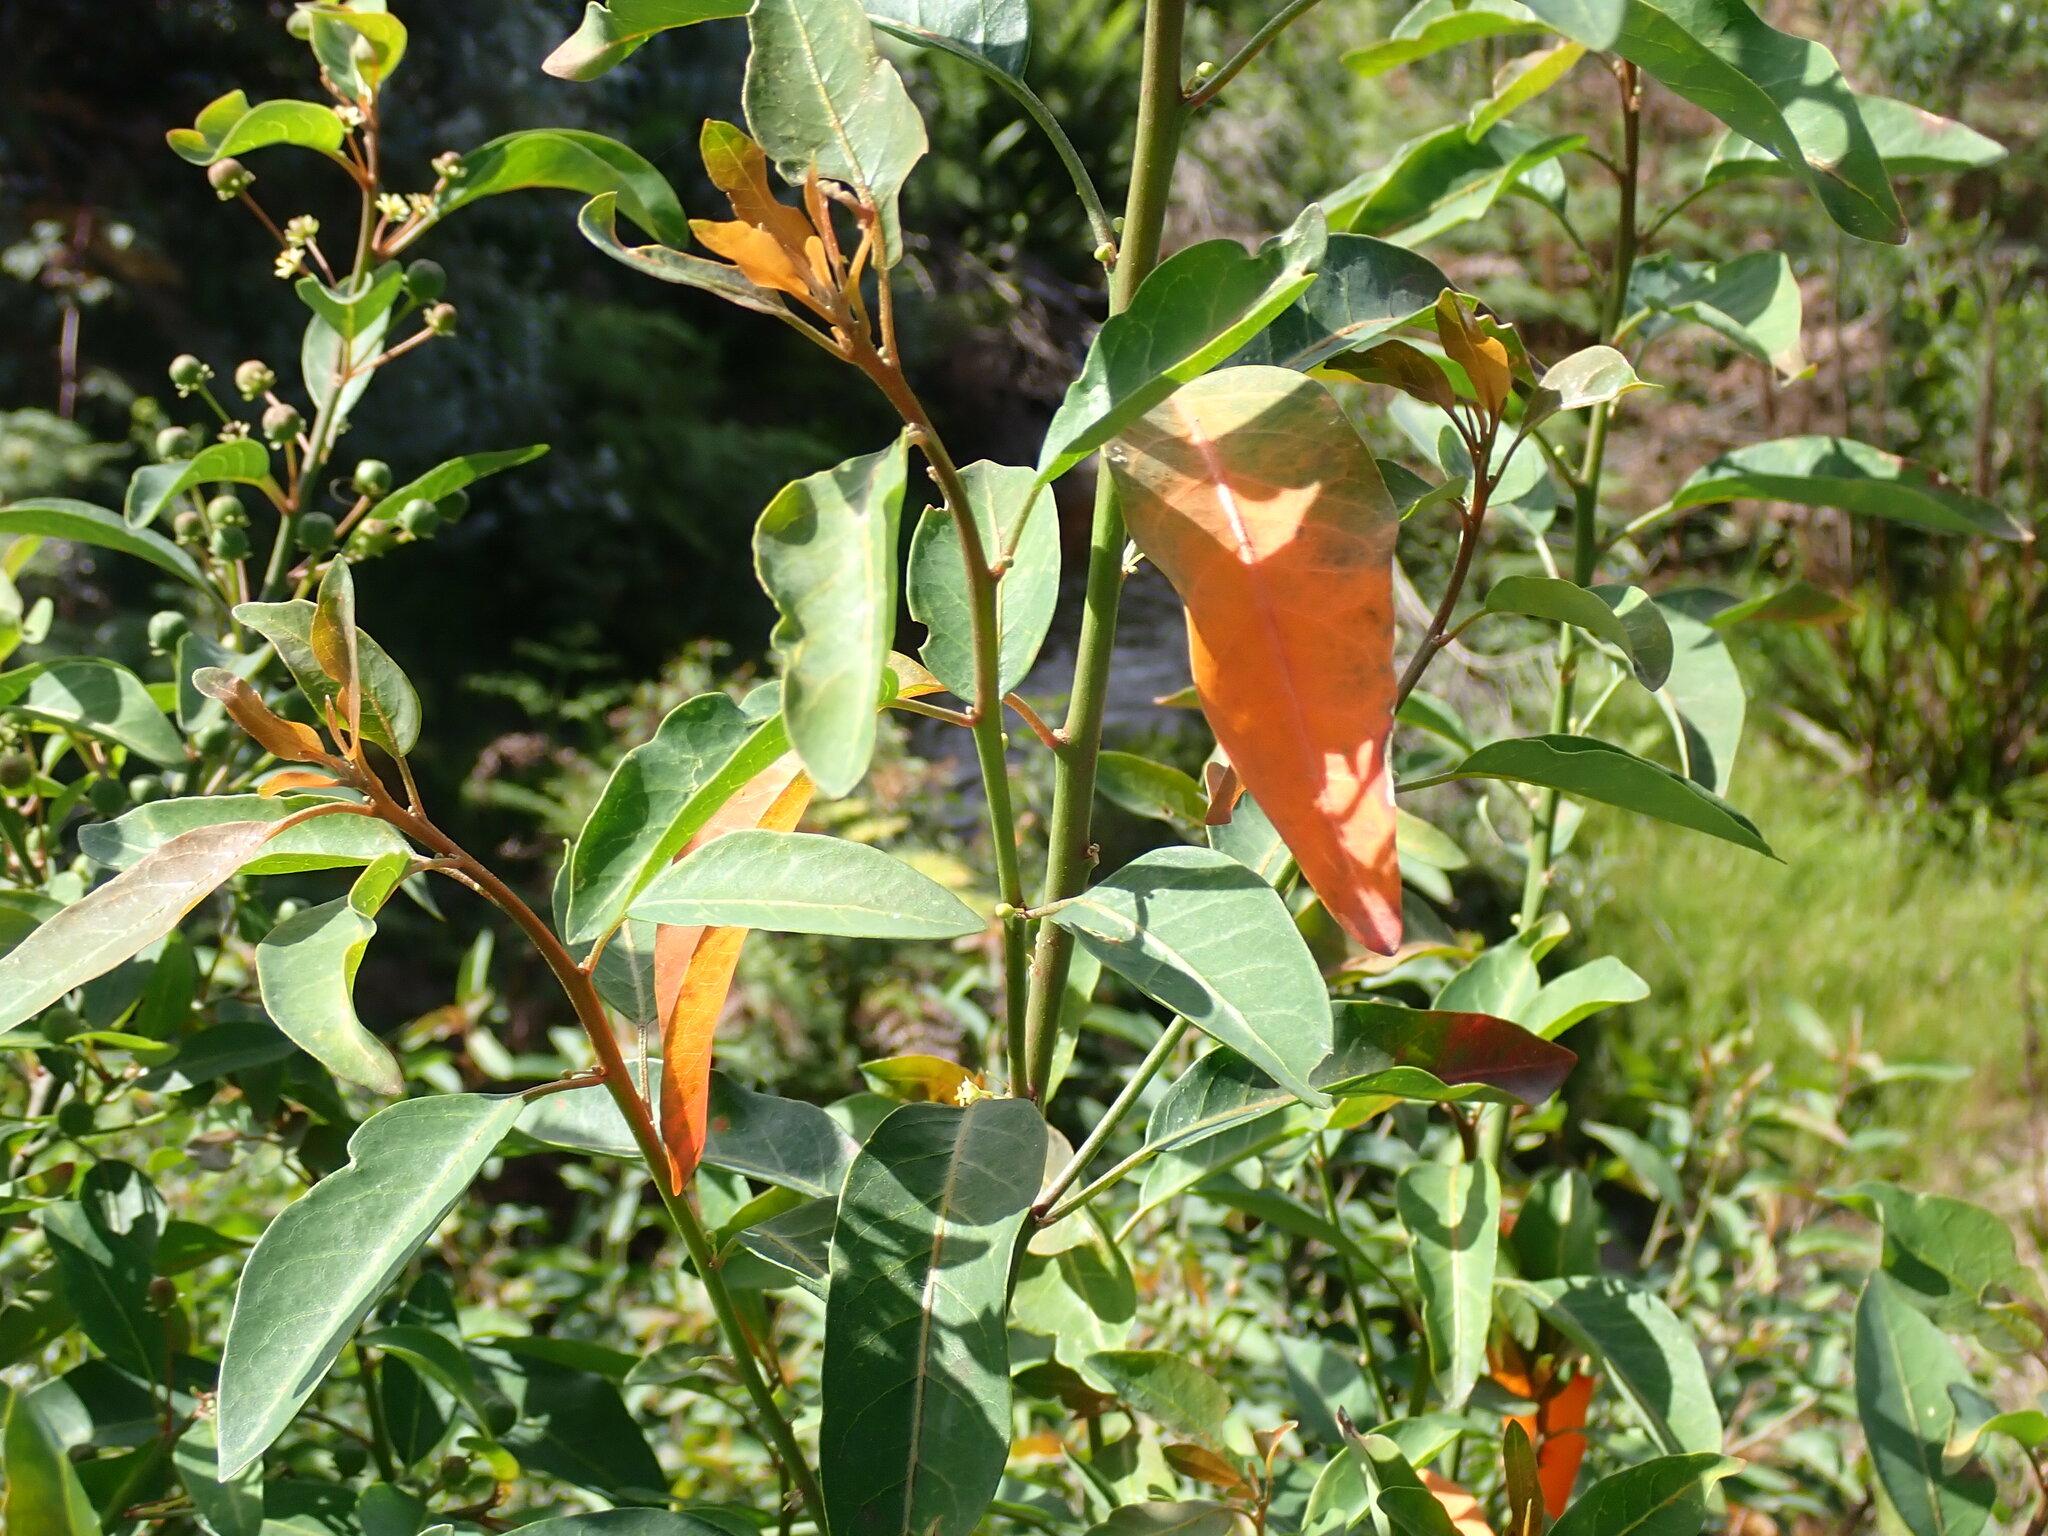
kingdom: Plantae
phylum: Tracheophyta
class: Magnoliopsida
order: Malpighiales
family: Peraceae
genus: Clutia
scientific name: Clutia pulchella
